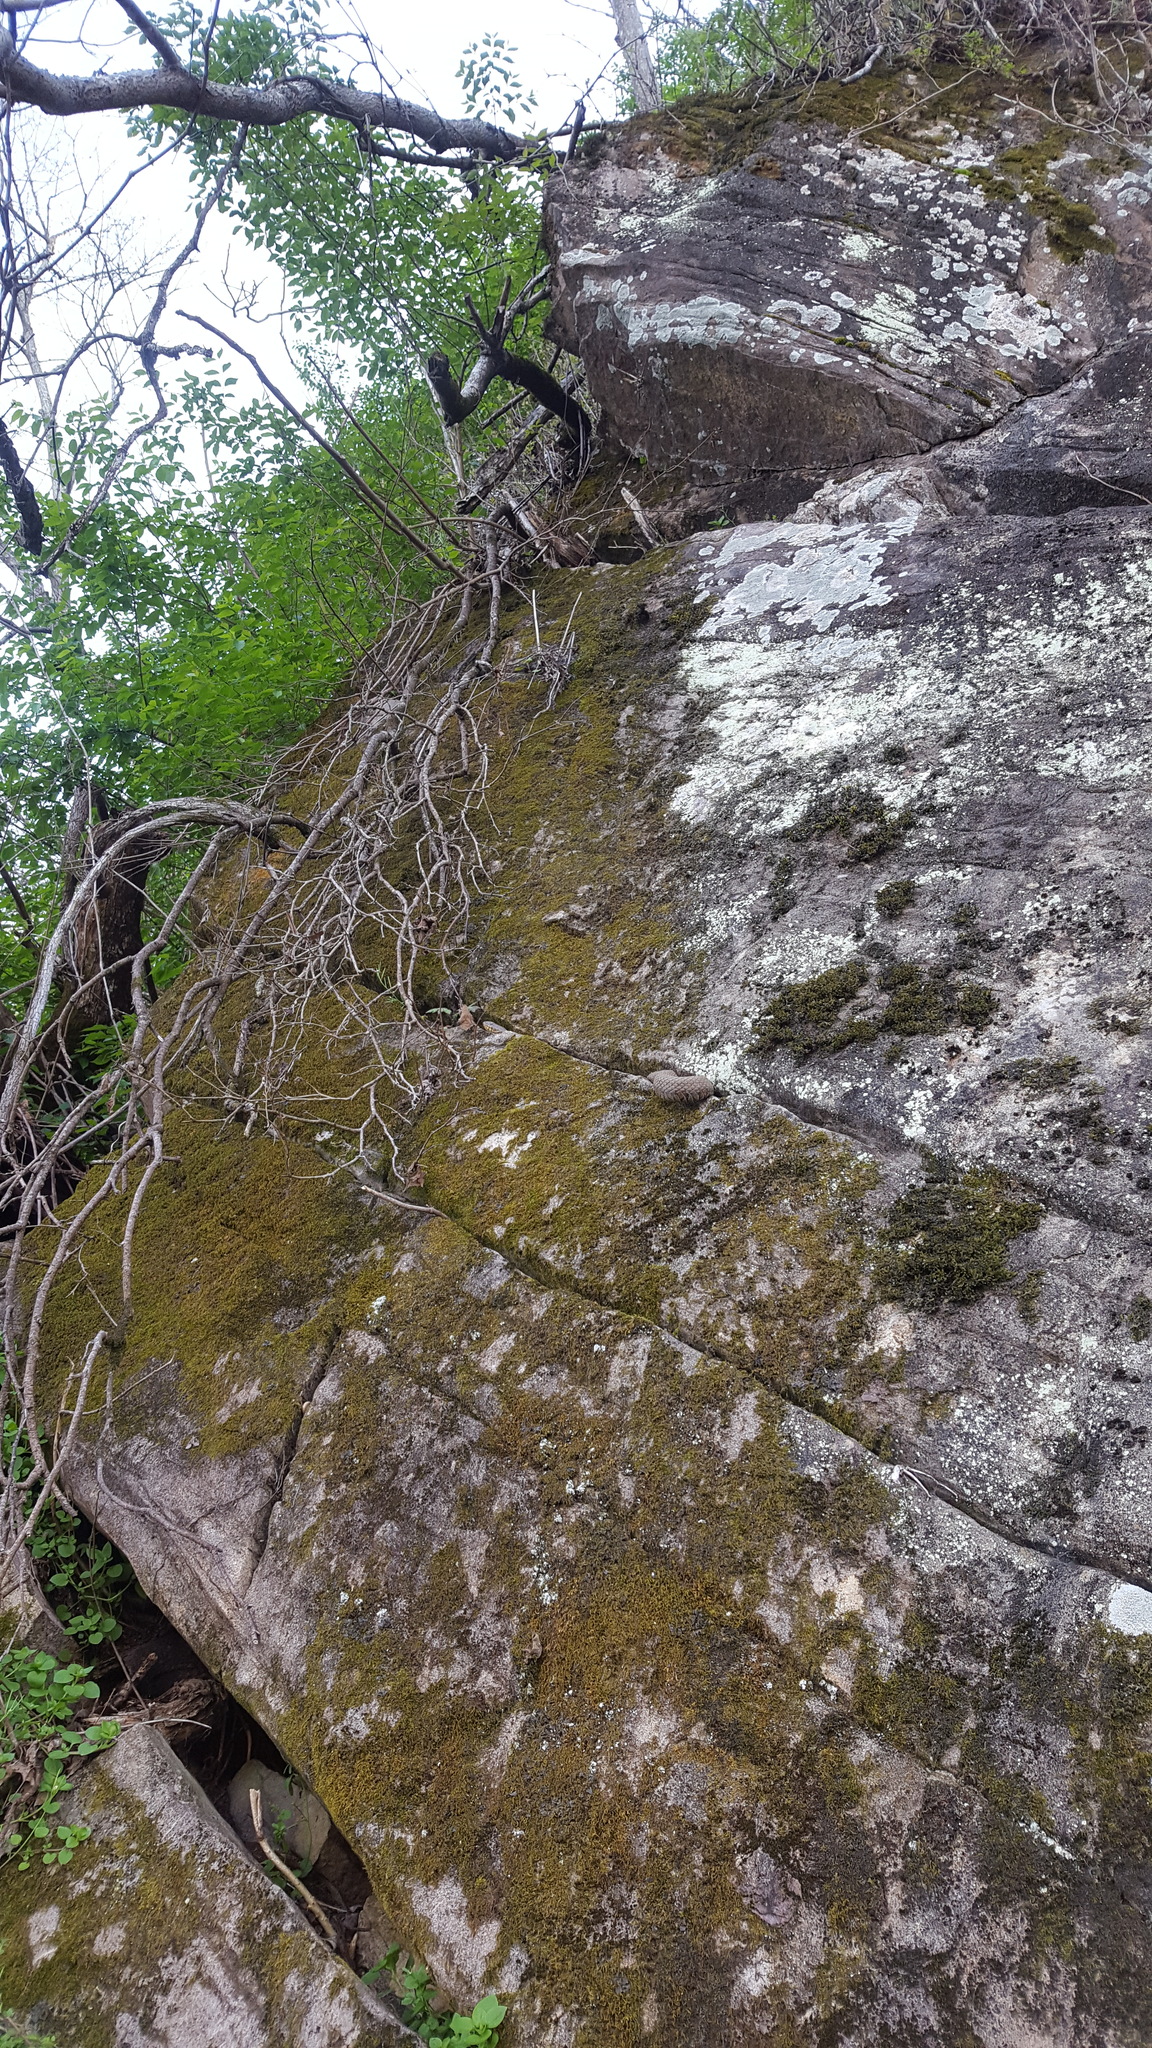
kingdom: Animalia
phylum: Chordata
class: Squamata
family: Colubridae
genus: Nerodia
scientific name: Nerodia sipedon
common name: Northern water snake
